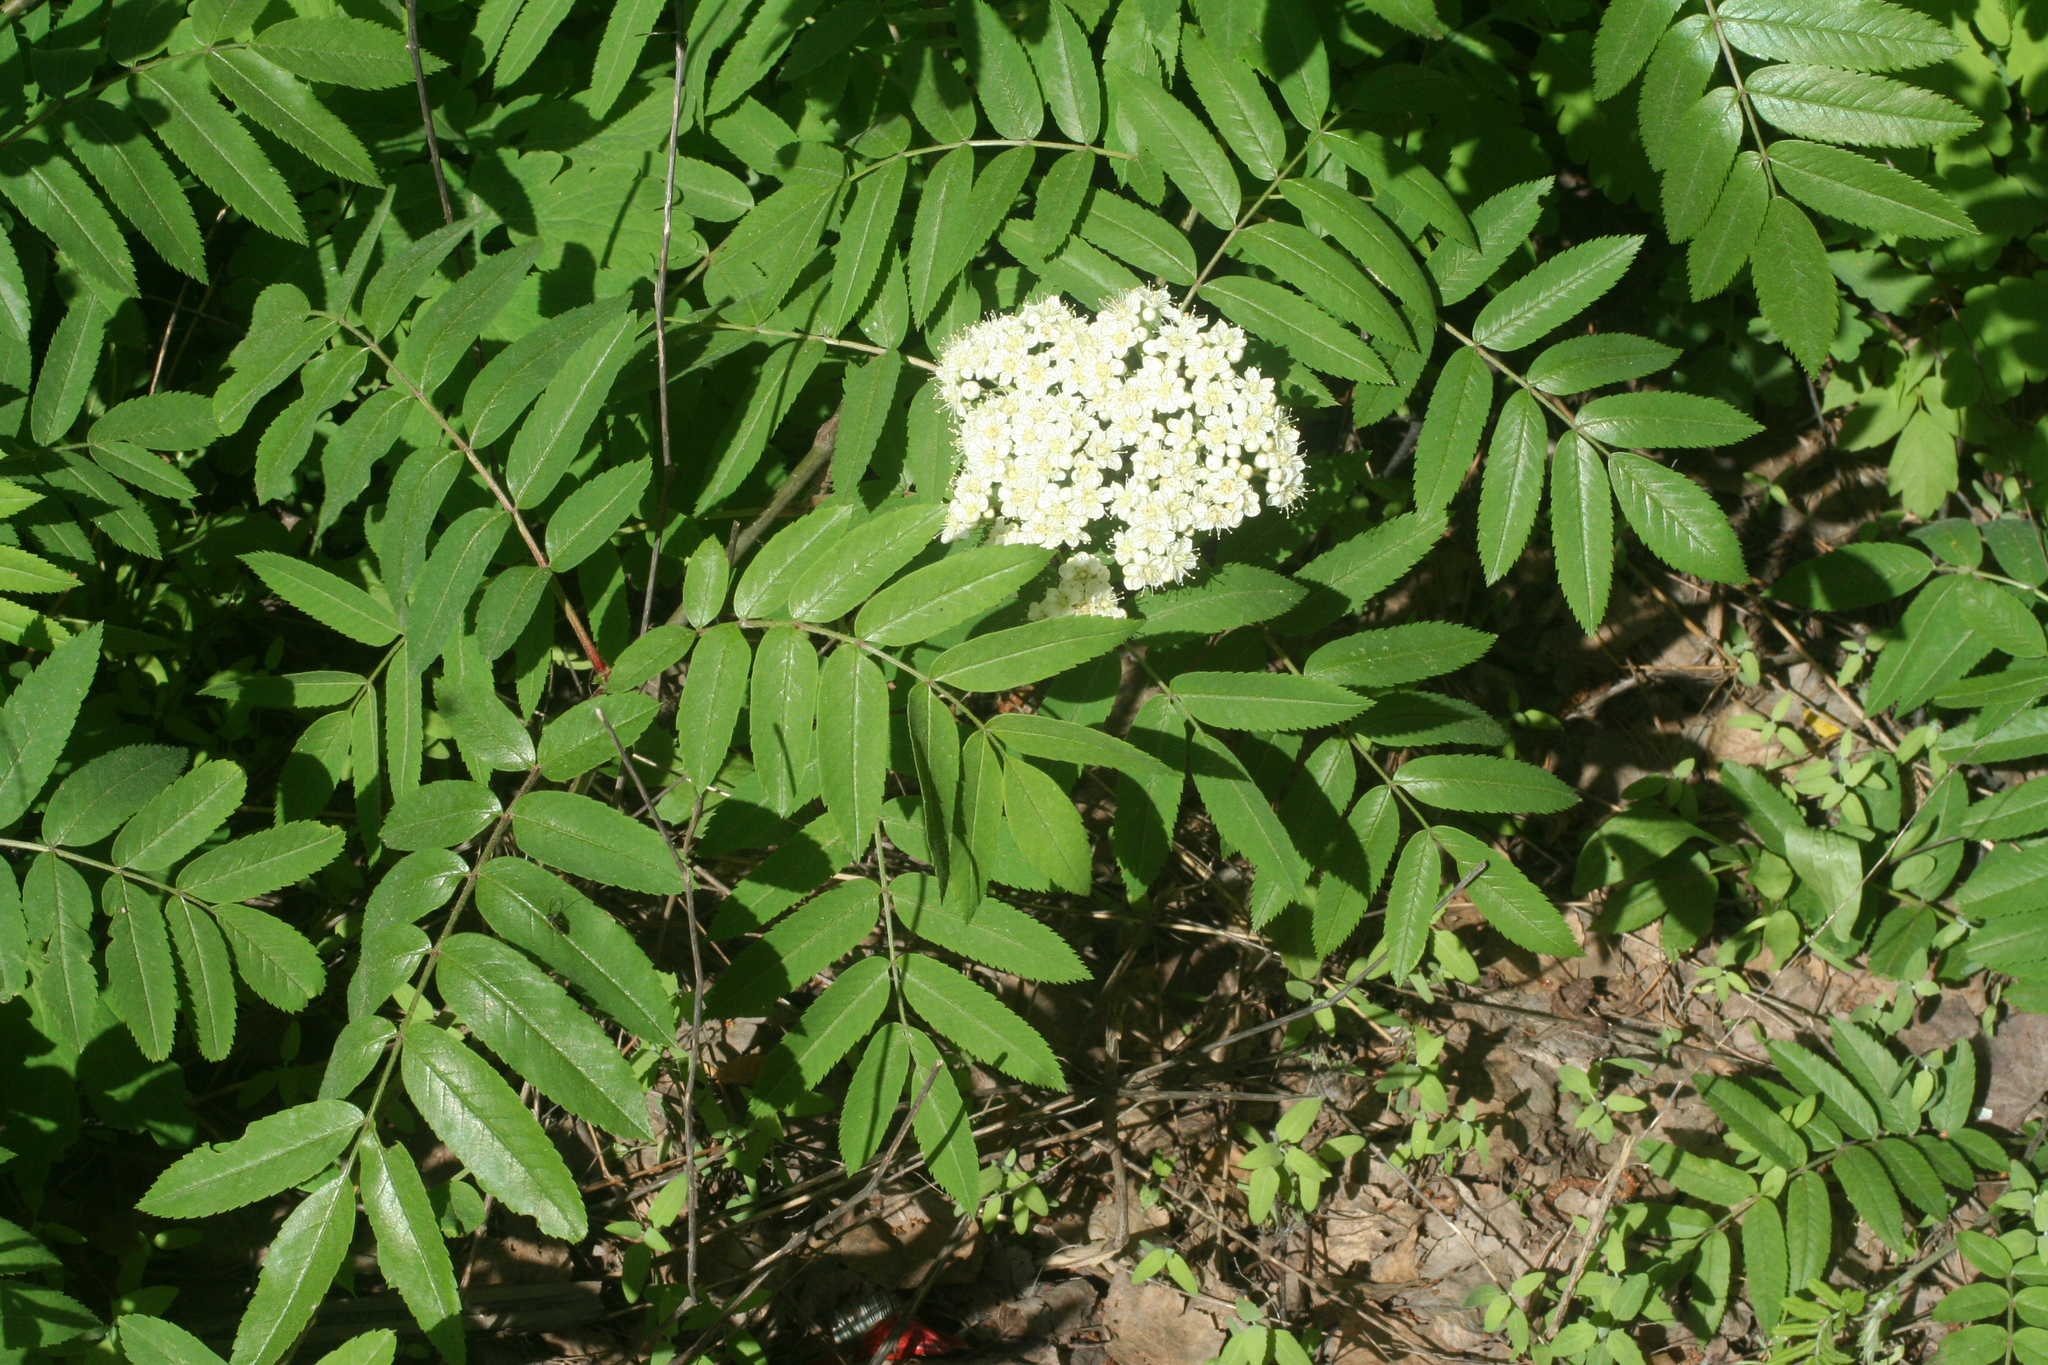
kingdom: Plantae
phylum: Tracheophyta
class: Magnoliopsida
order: Rosales
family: Rosaceae
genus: Sorbus
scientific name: Sorbus aucuparia
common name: Rowan
